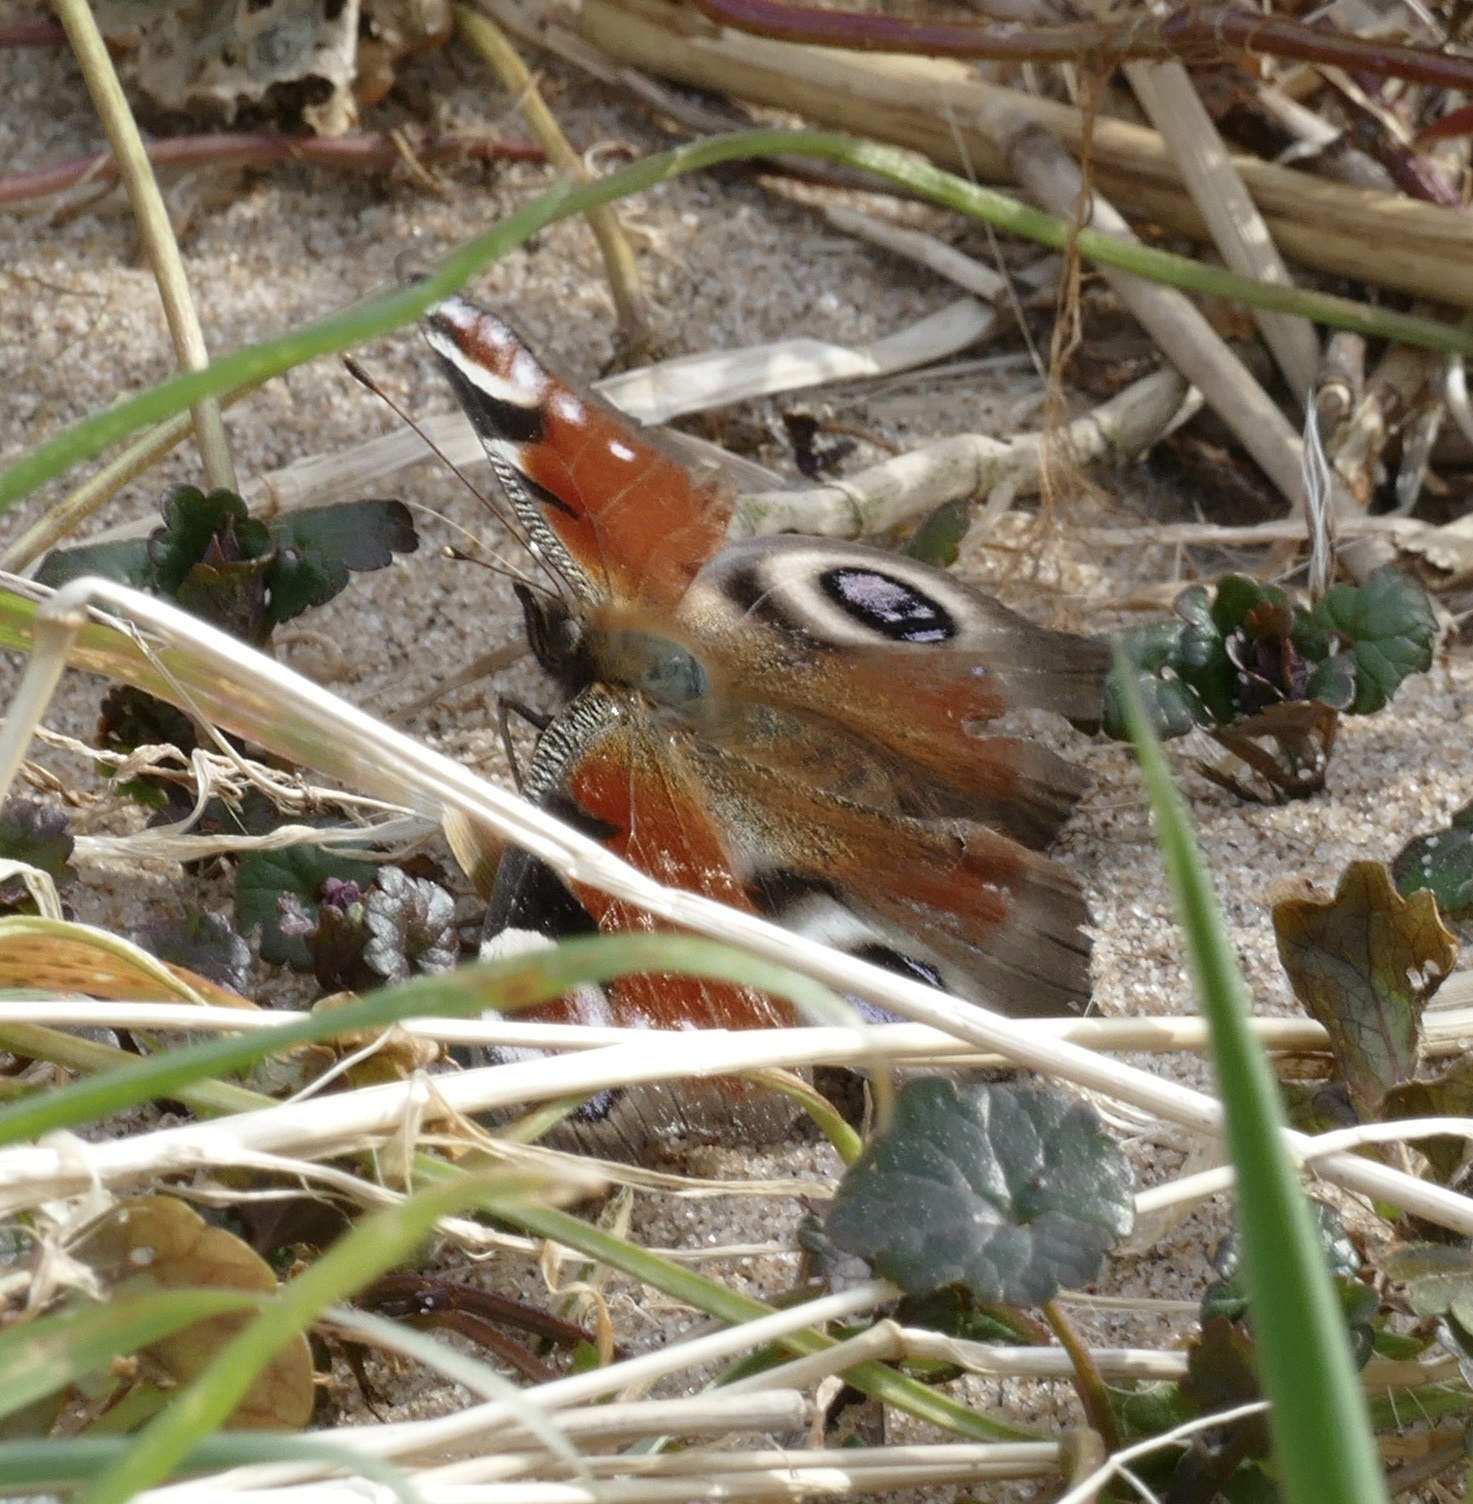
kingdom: Animalia
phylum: Arthropoda
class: Insecta
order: Lepidoptera
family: Nymphalidae
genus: Aglais
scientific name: Aglais io
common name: Peacock
